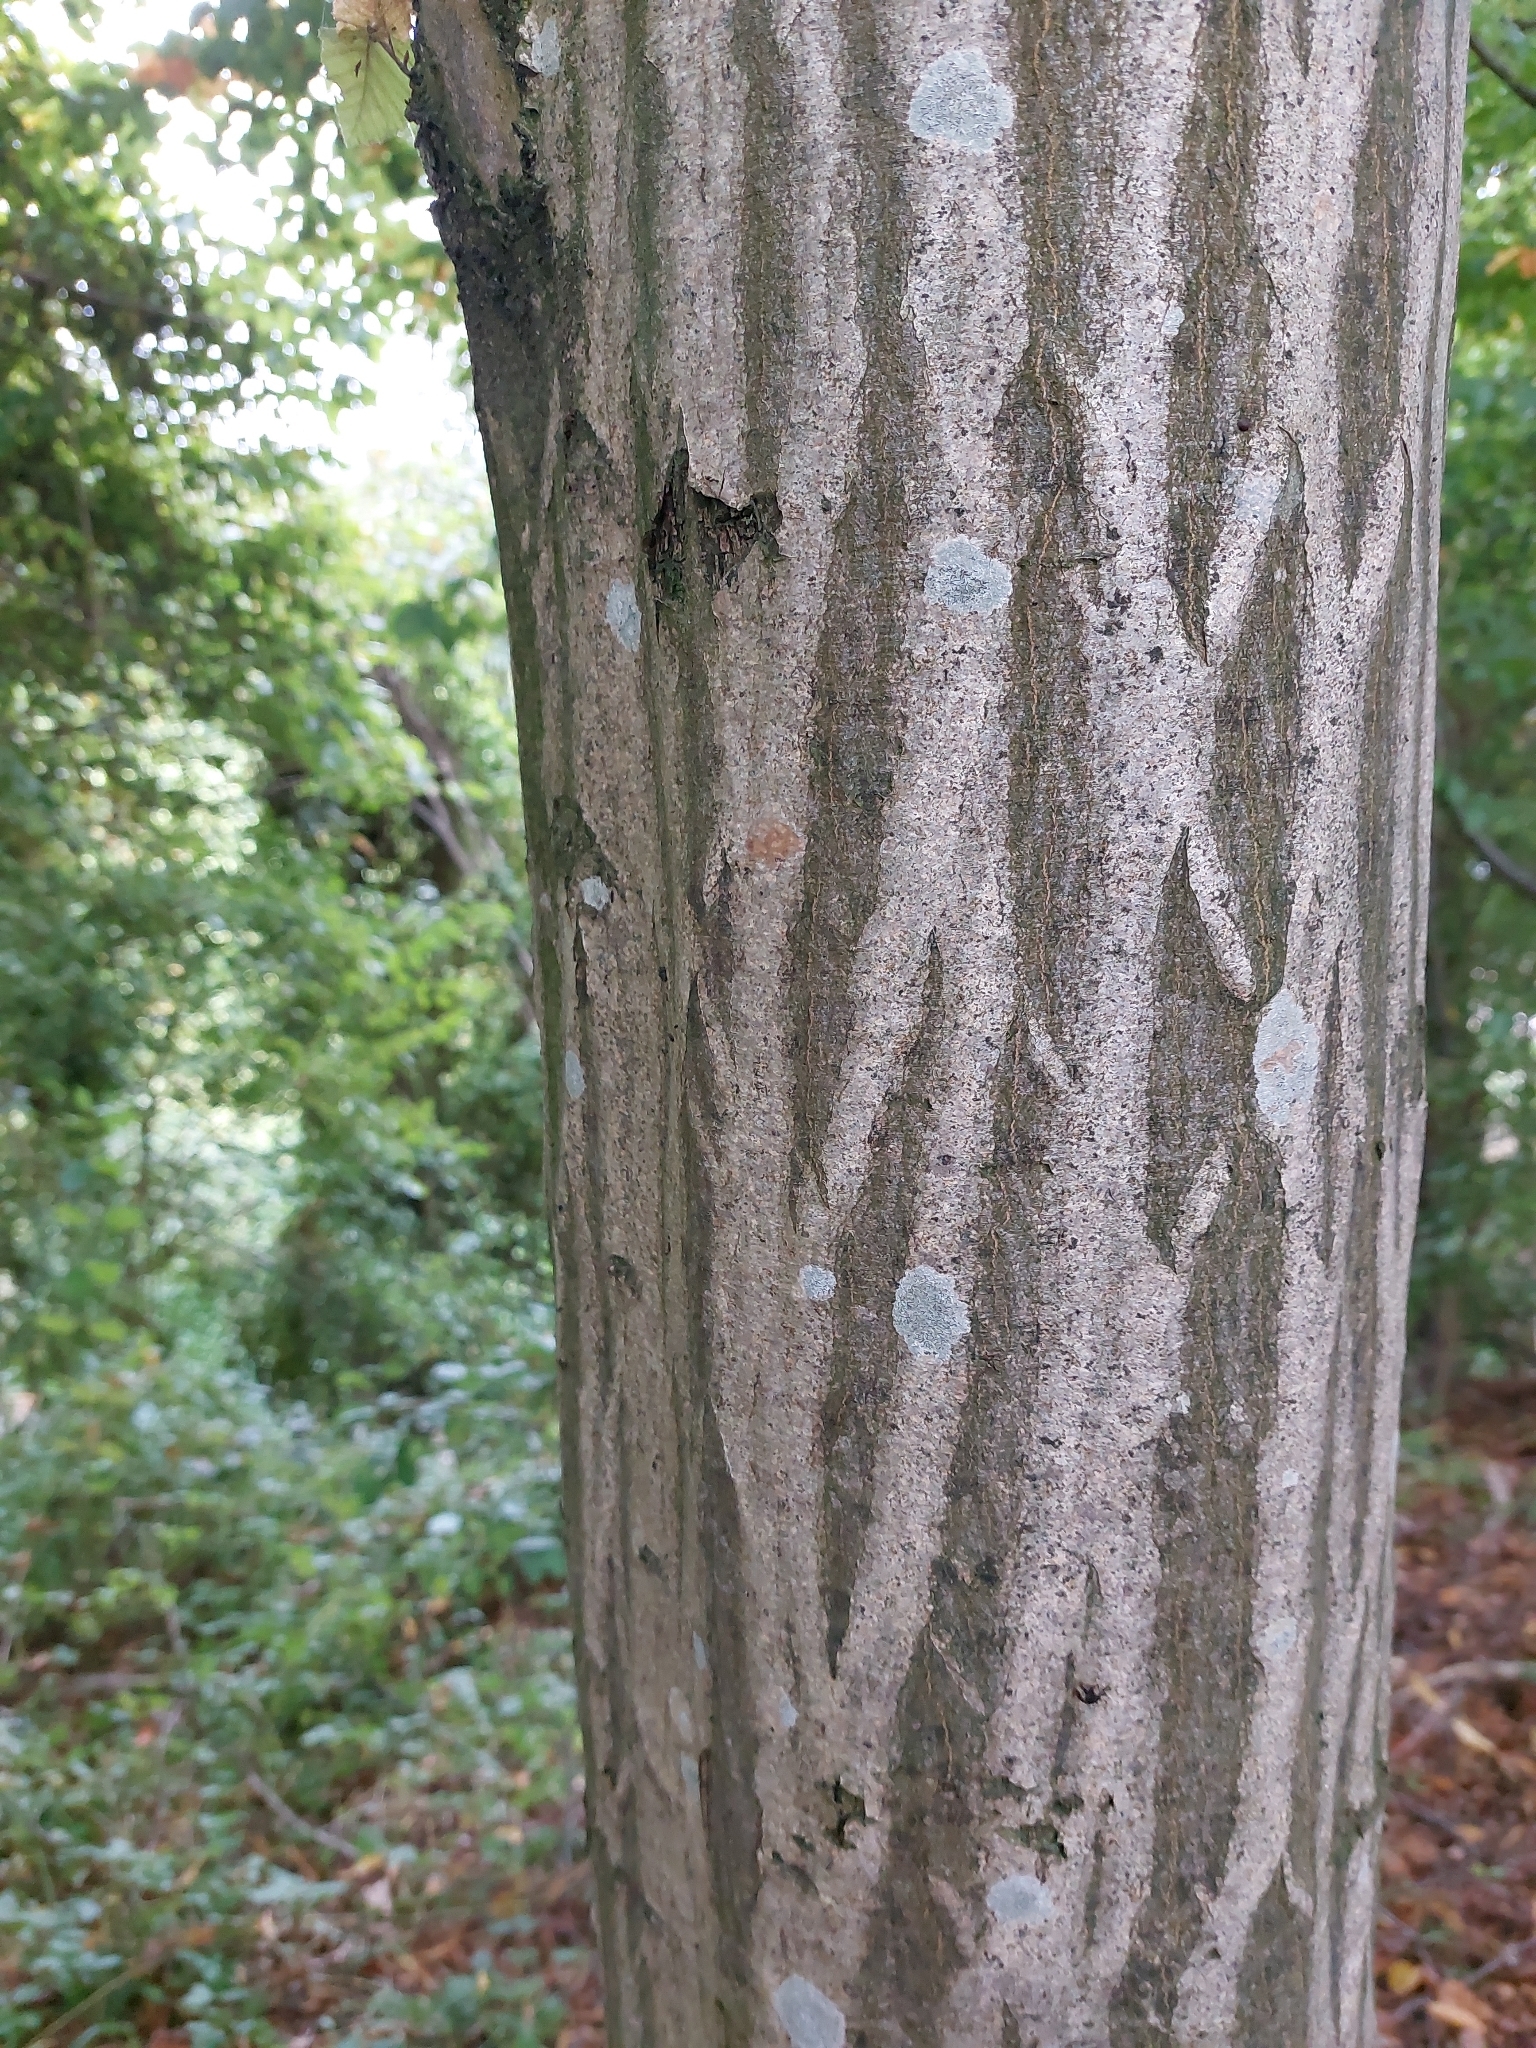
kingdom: Plantae
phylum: Tracheophyta
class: Magnoliopsida
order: Fagales
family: Betulaceae
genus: Carpinus
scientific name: Carpinus betulus
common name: Hornbeam
